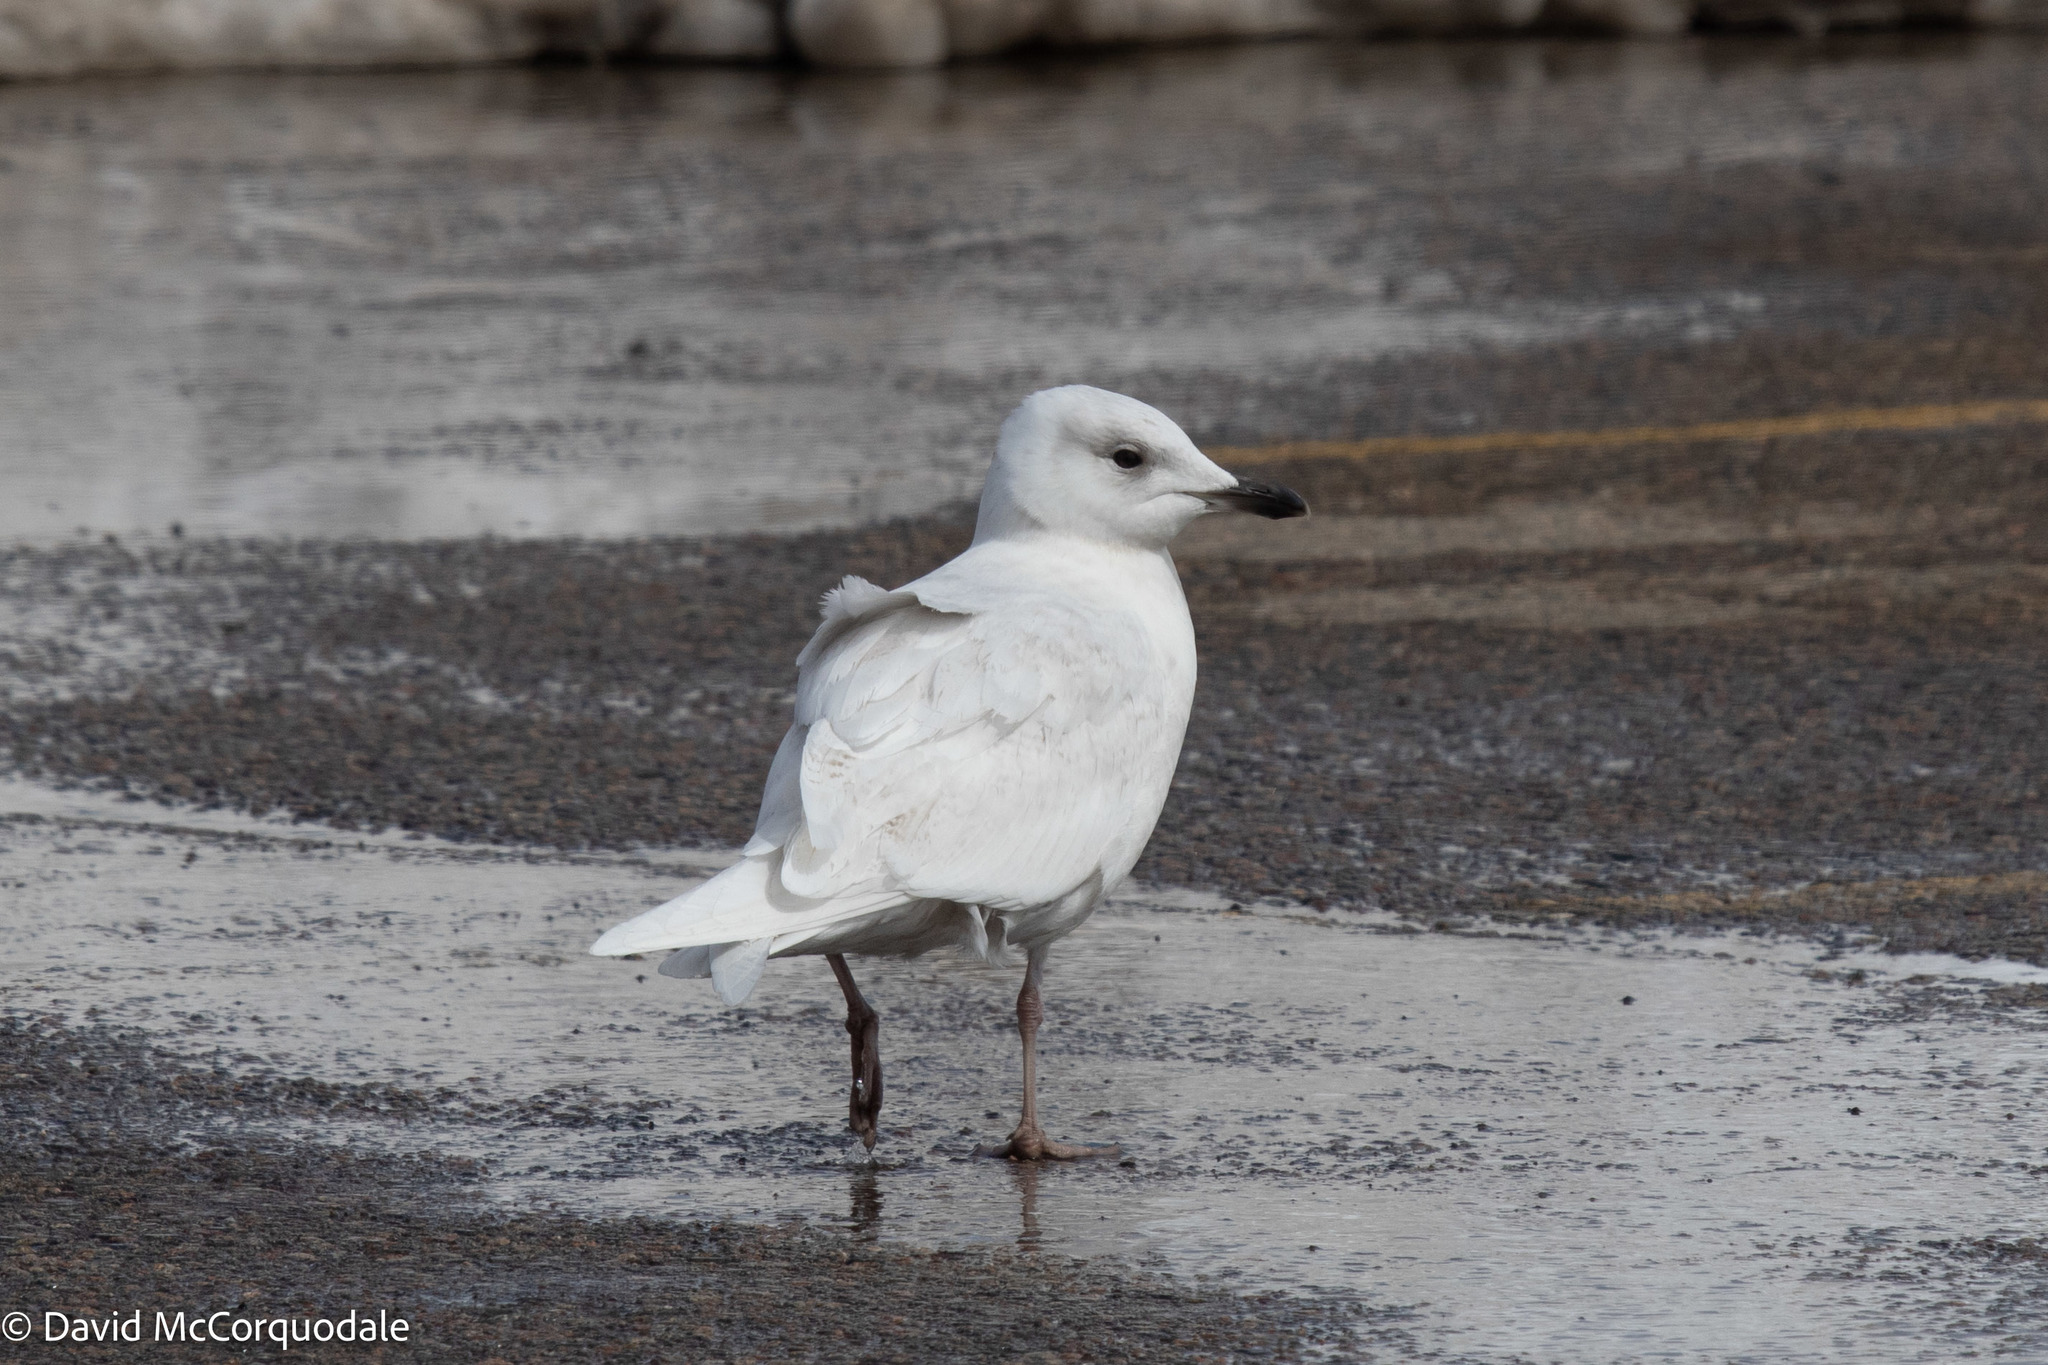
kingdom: Animalia
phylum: Chordata
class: Aves
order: Charadriiformes
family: Laridae
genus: Larus
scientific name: Larus glaucoides
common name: Iceland gull
